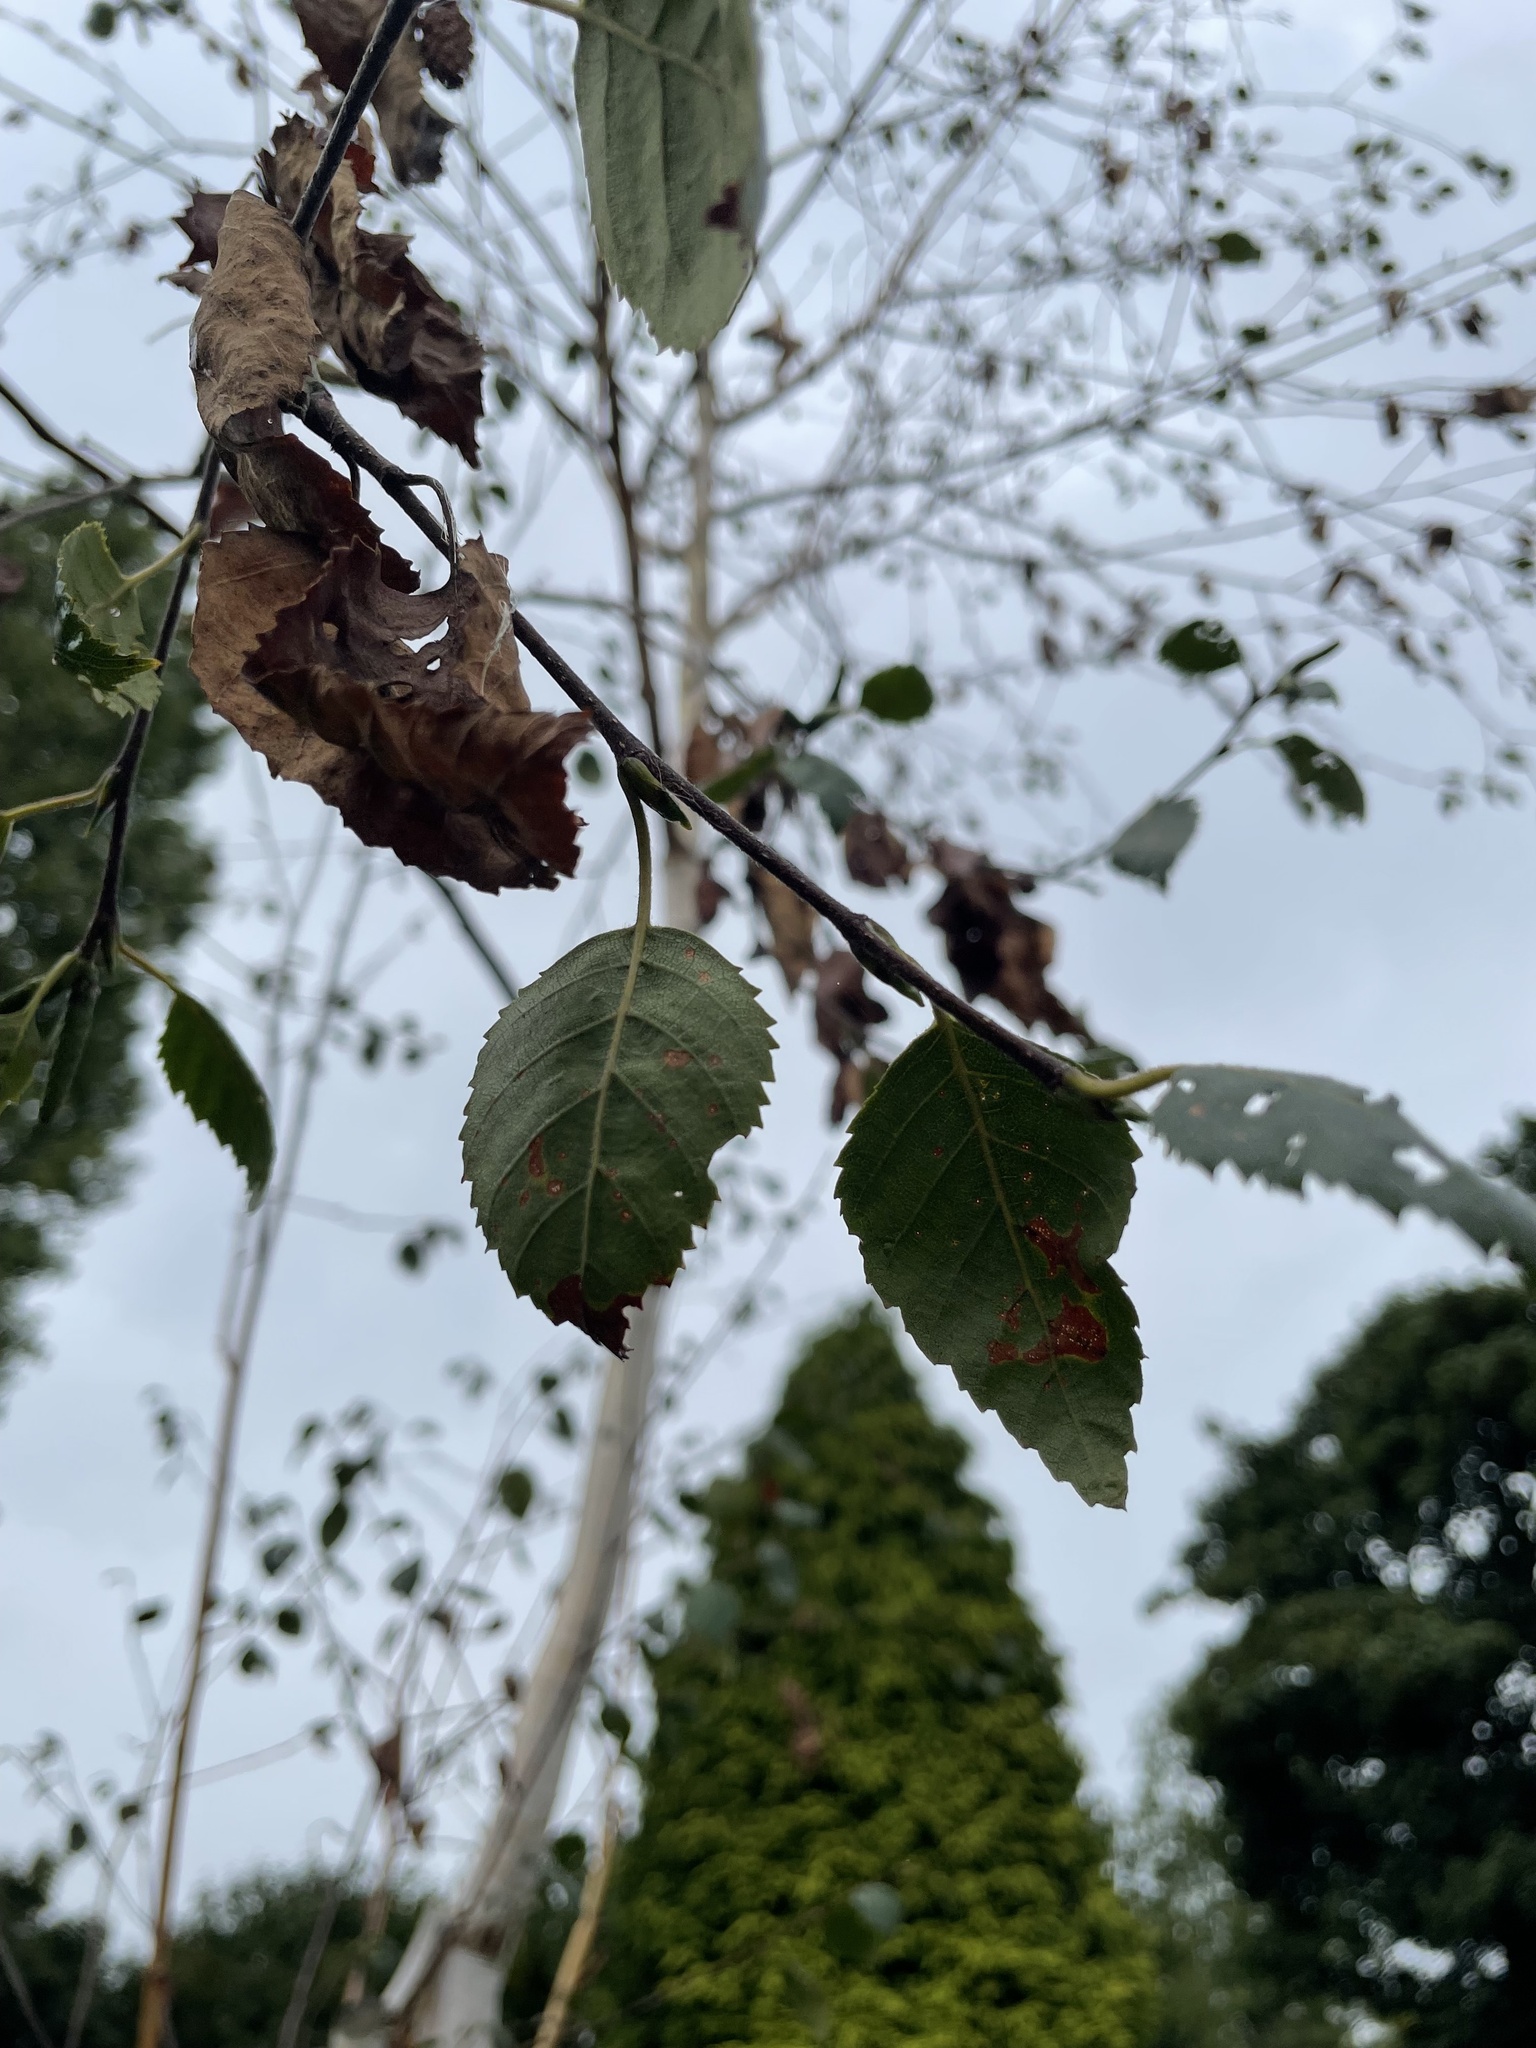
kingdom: Plantae
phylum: Tracheophyta
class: Magnoliopsida
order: Fagales
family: Betulaceae
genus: Betula
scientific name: Betula pendula
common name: Silver birch
